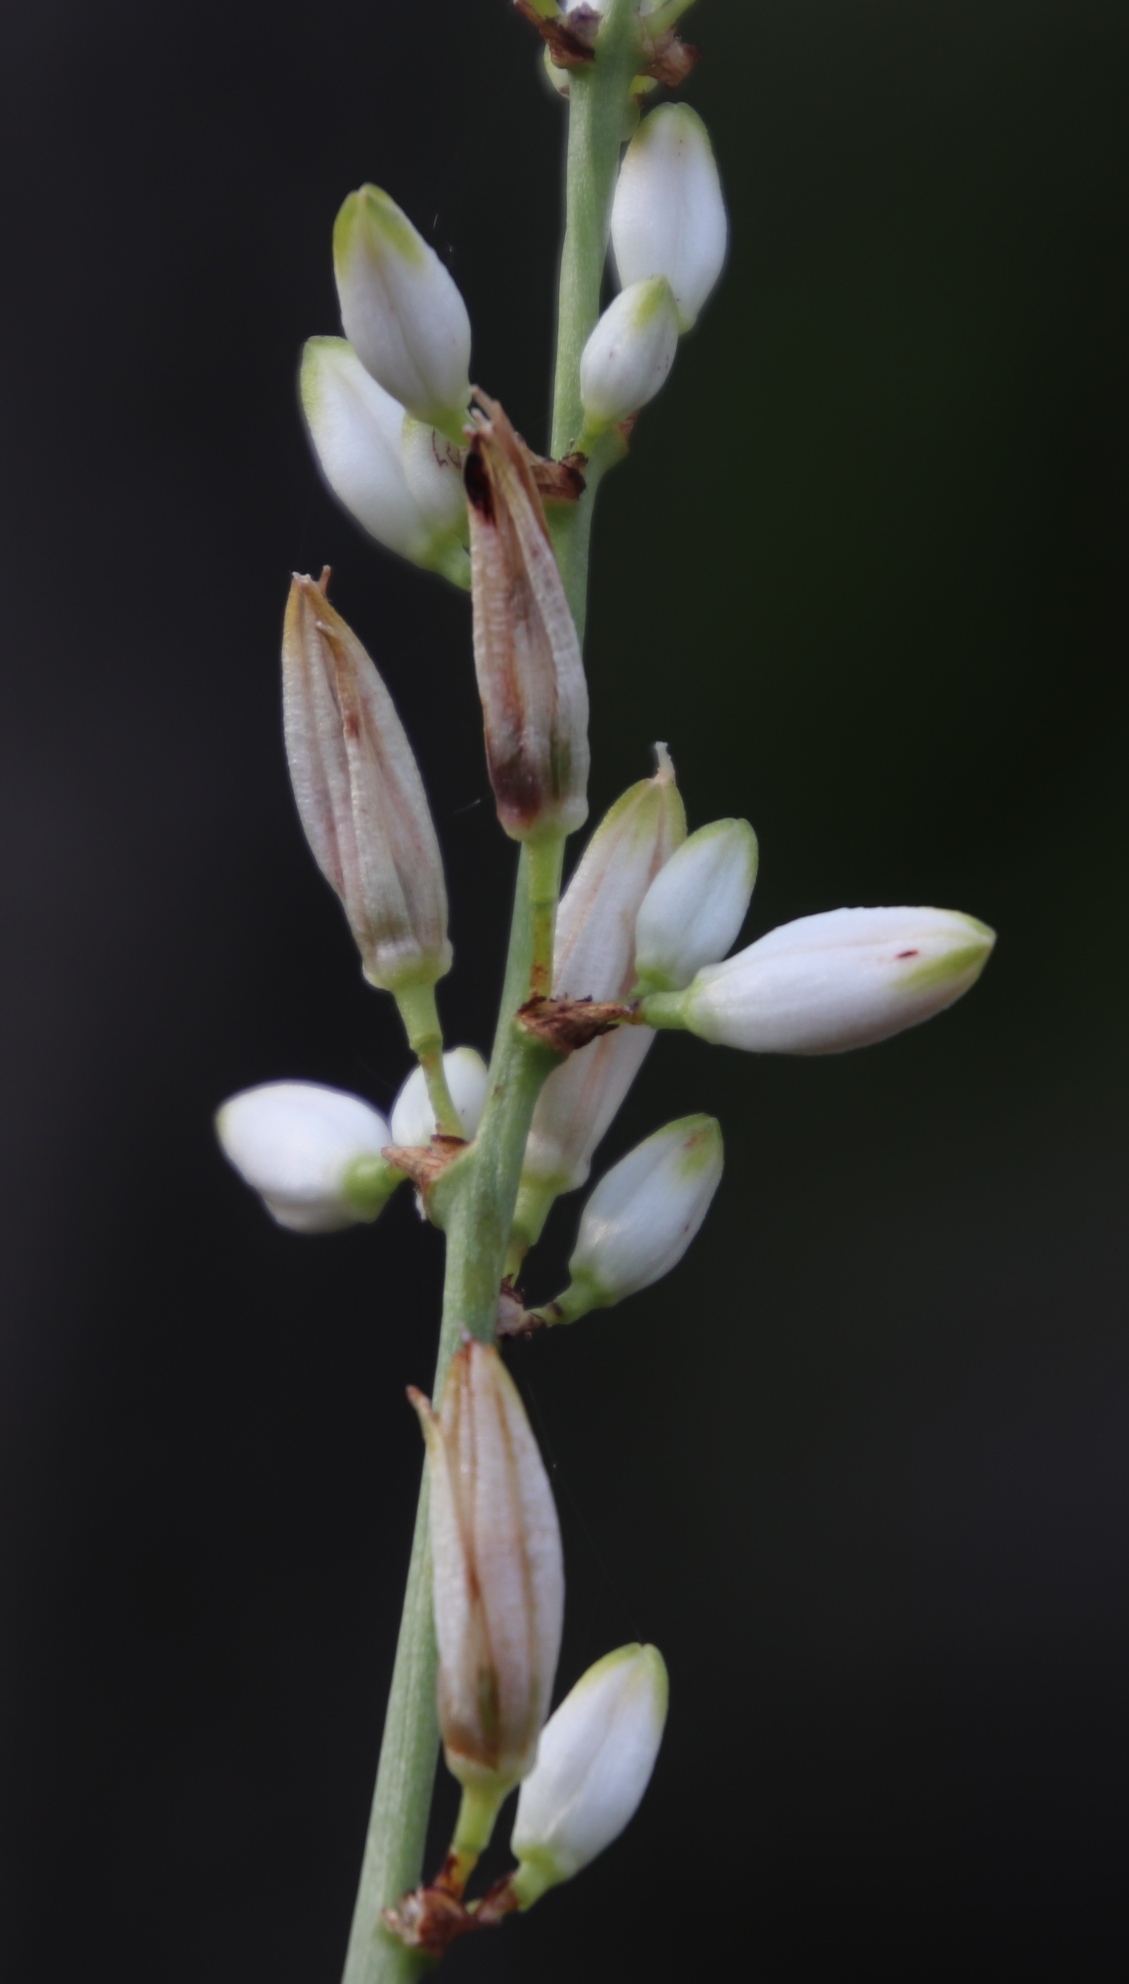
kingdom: Plantae
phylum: Tracheophyta
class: Liliopsida
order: Asparagales
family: Asparagaceae
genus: Chlorophytum
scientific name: Chlorophytum krookianum
